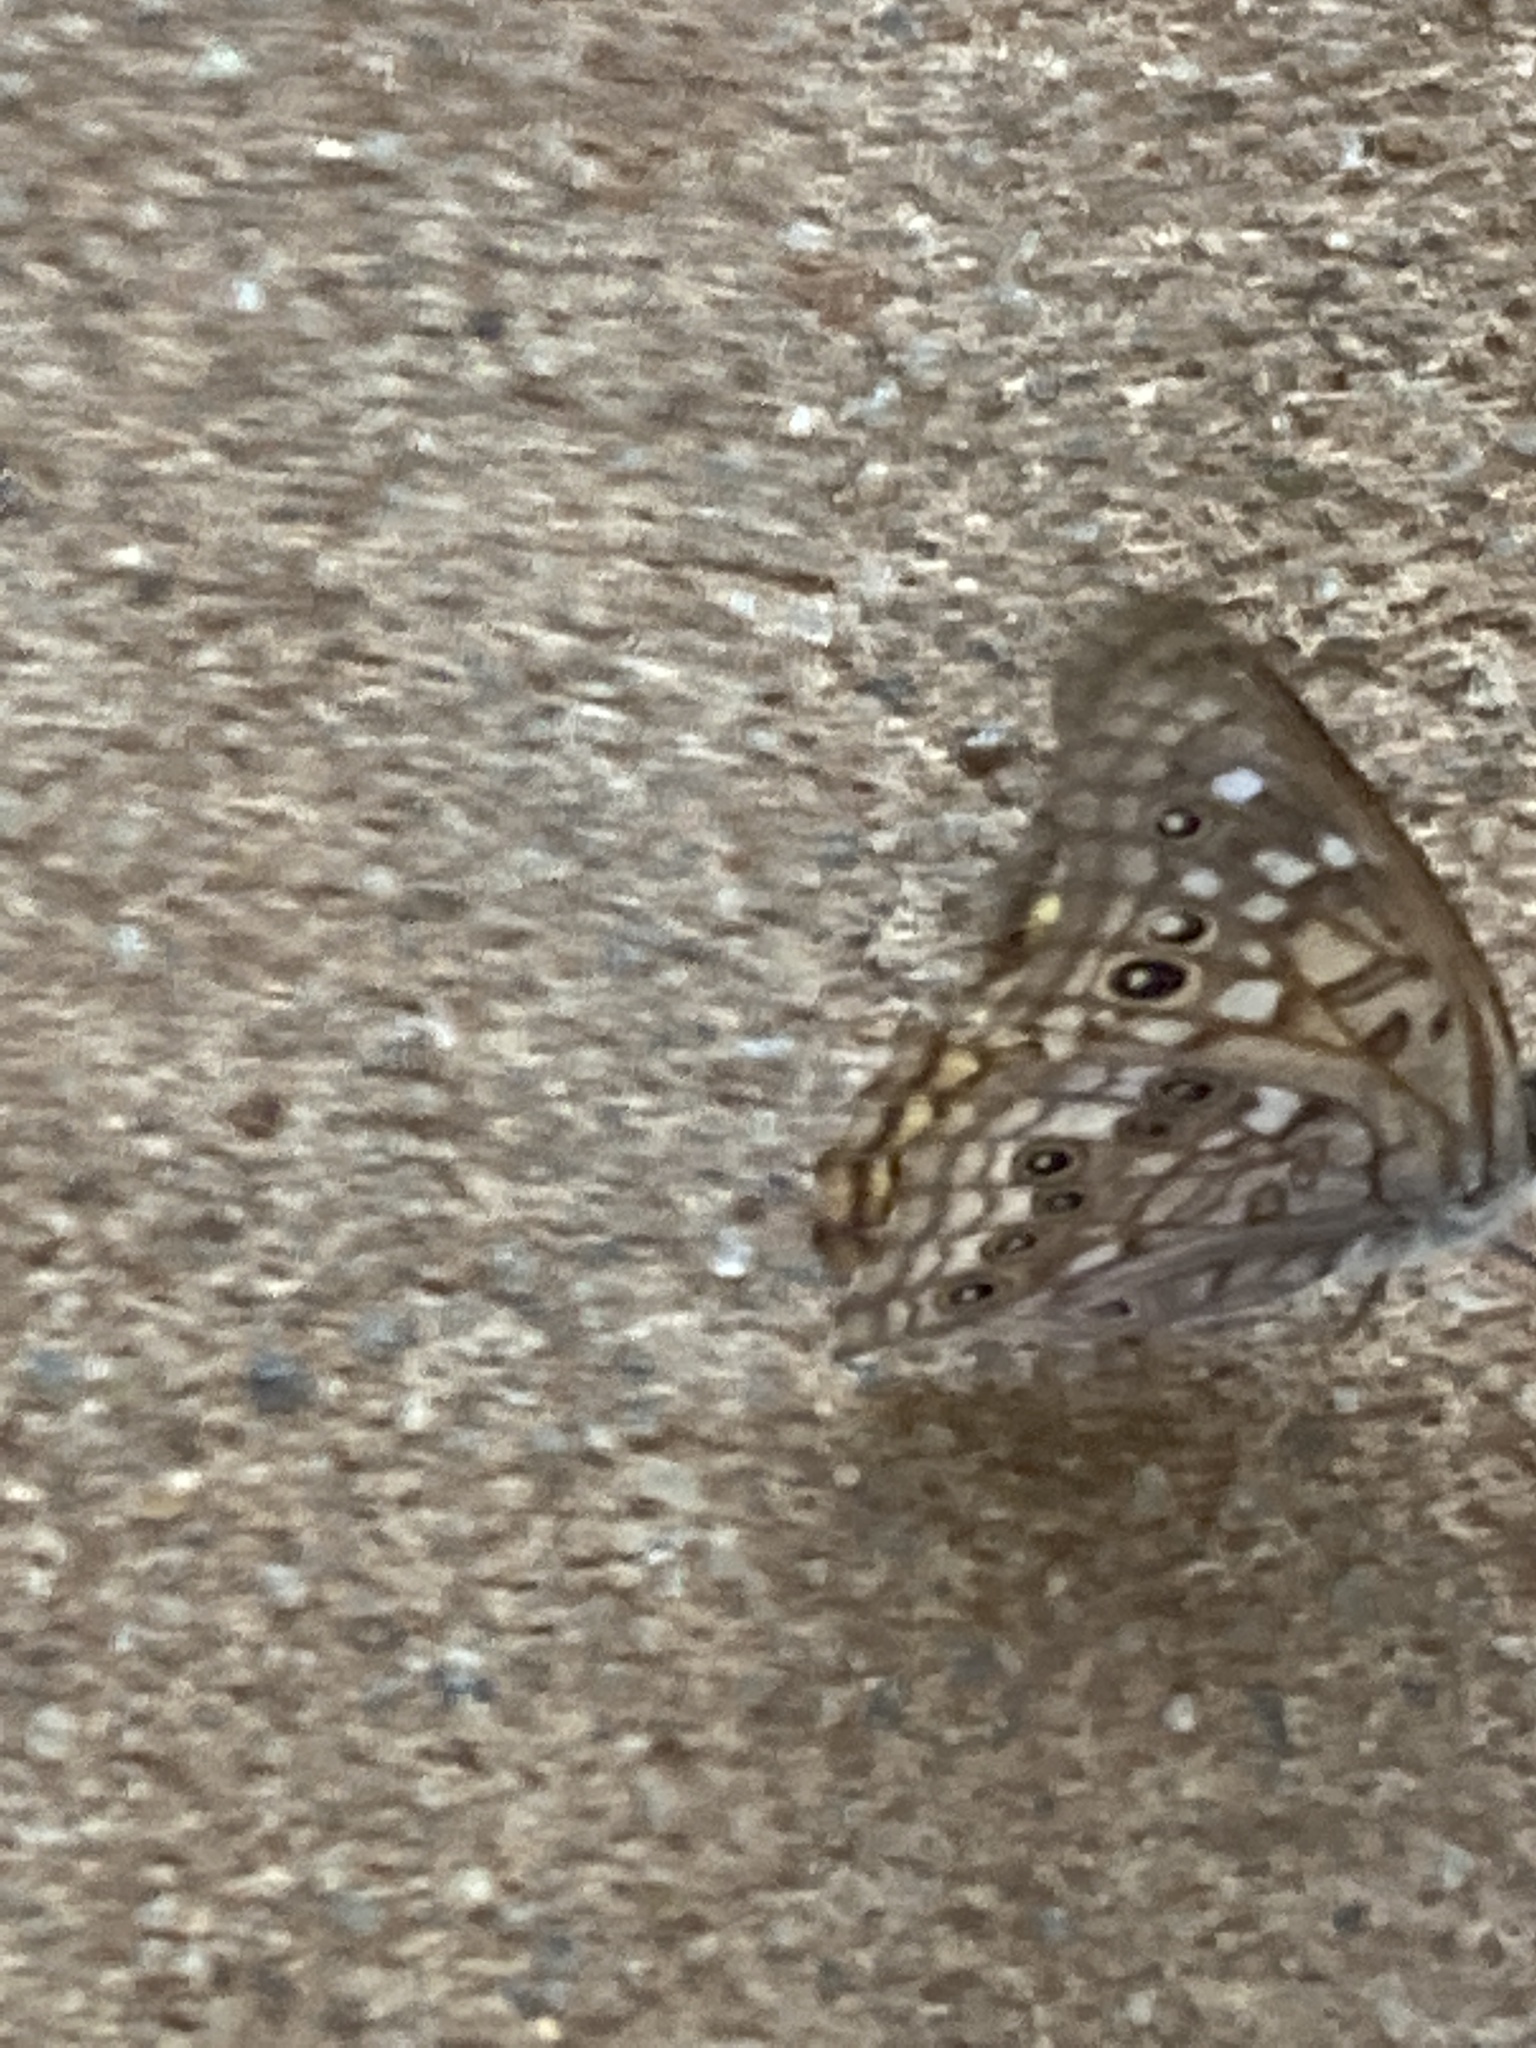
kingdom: Animalia
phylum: Arthropoda
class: Insecta
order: Lepidoptera
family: Nymphalidae
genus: Asterocampa
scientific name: Asterocampa celtis
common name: Hackberry emperor
